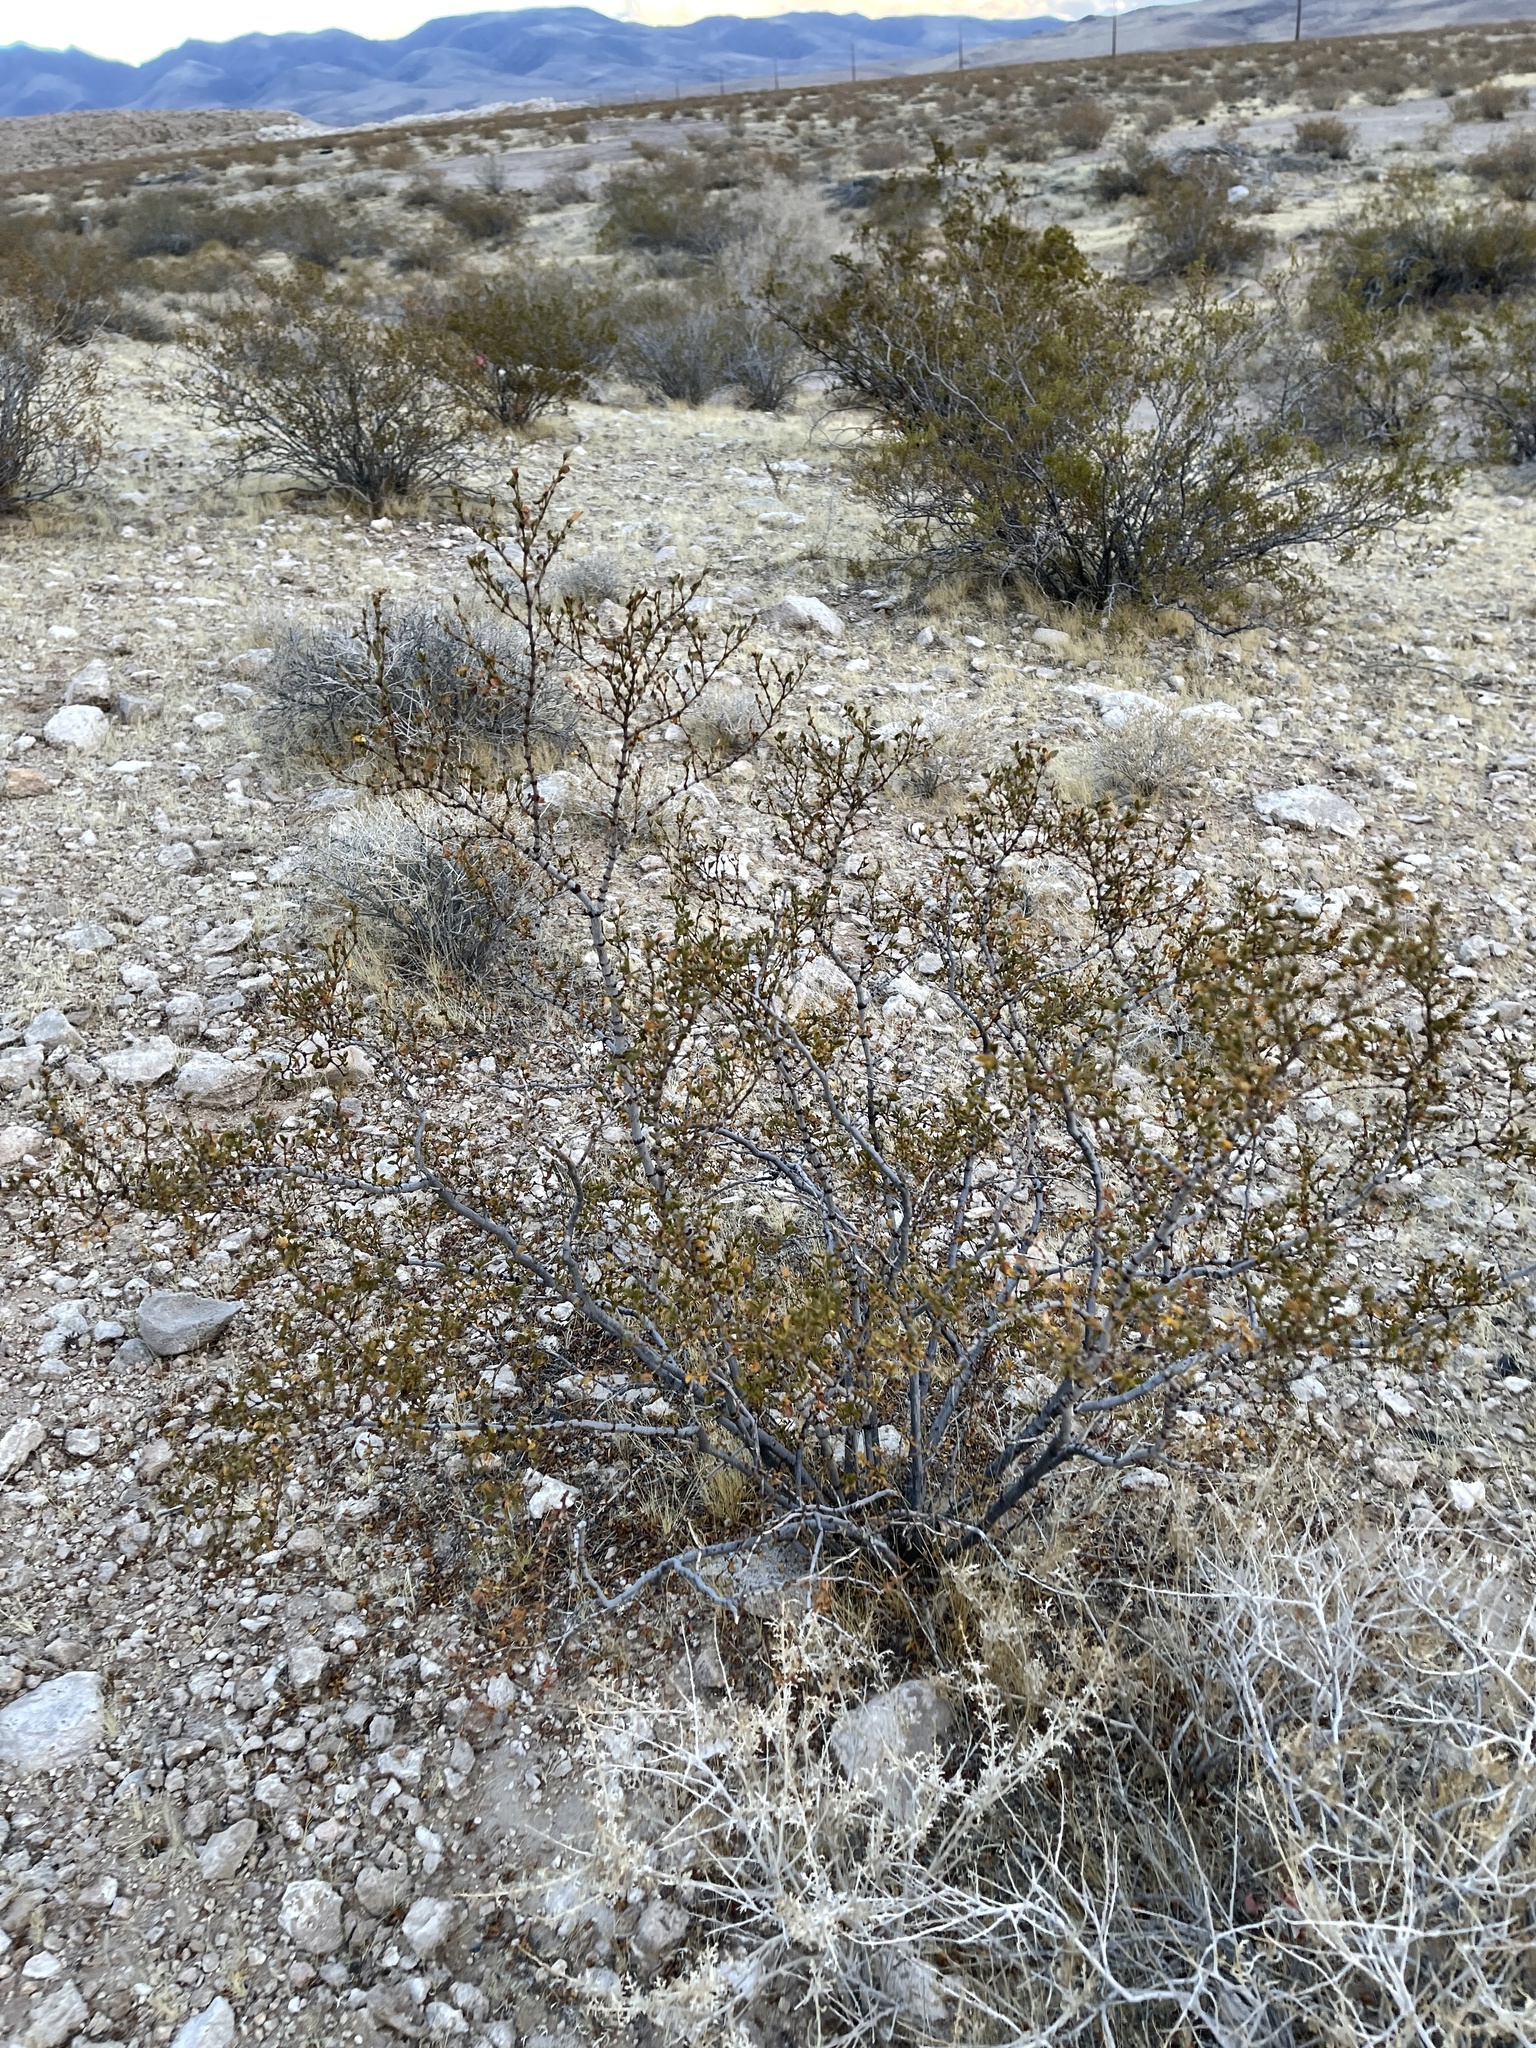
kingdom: Plantae
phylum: Tracheophyta
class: Magnoliopsida
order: Zygophyllales
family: Zygophyllaceae
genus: Larrea
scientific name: Larrea tridentata
